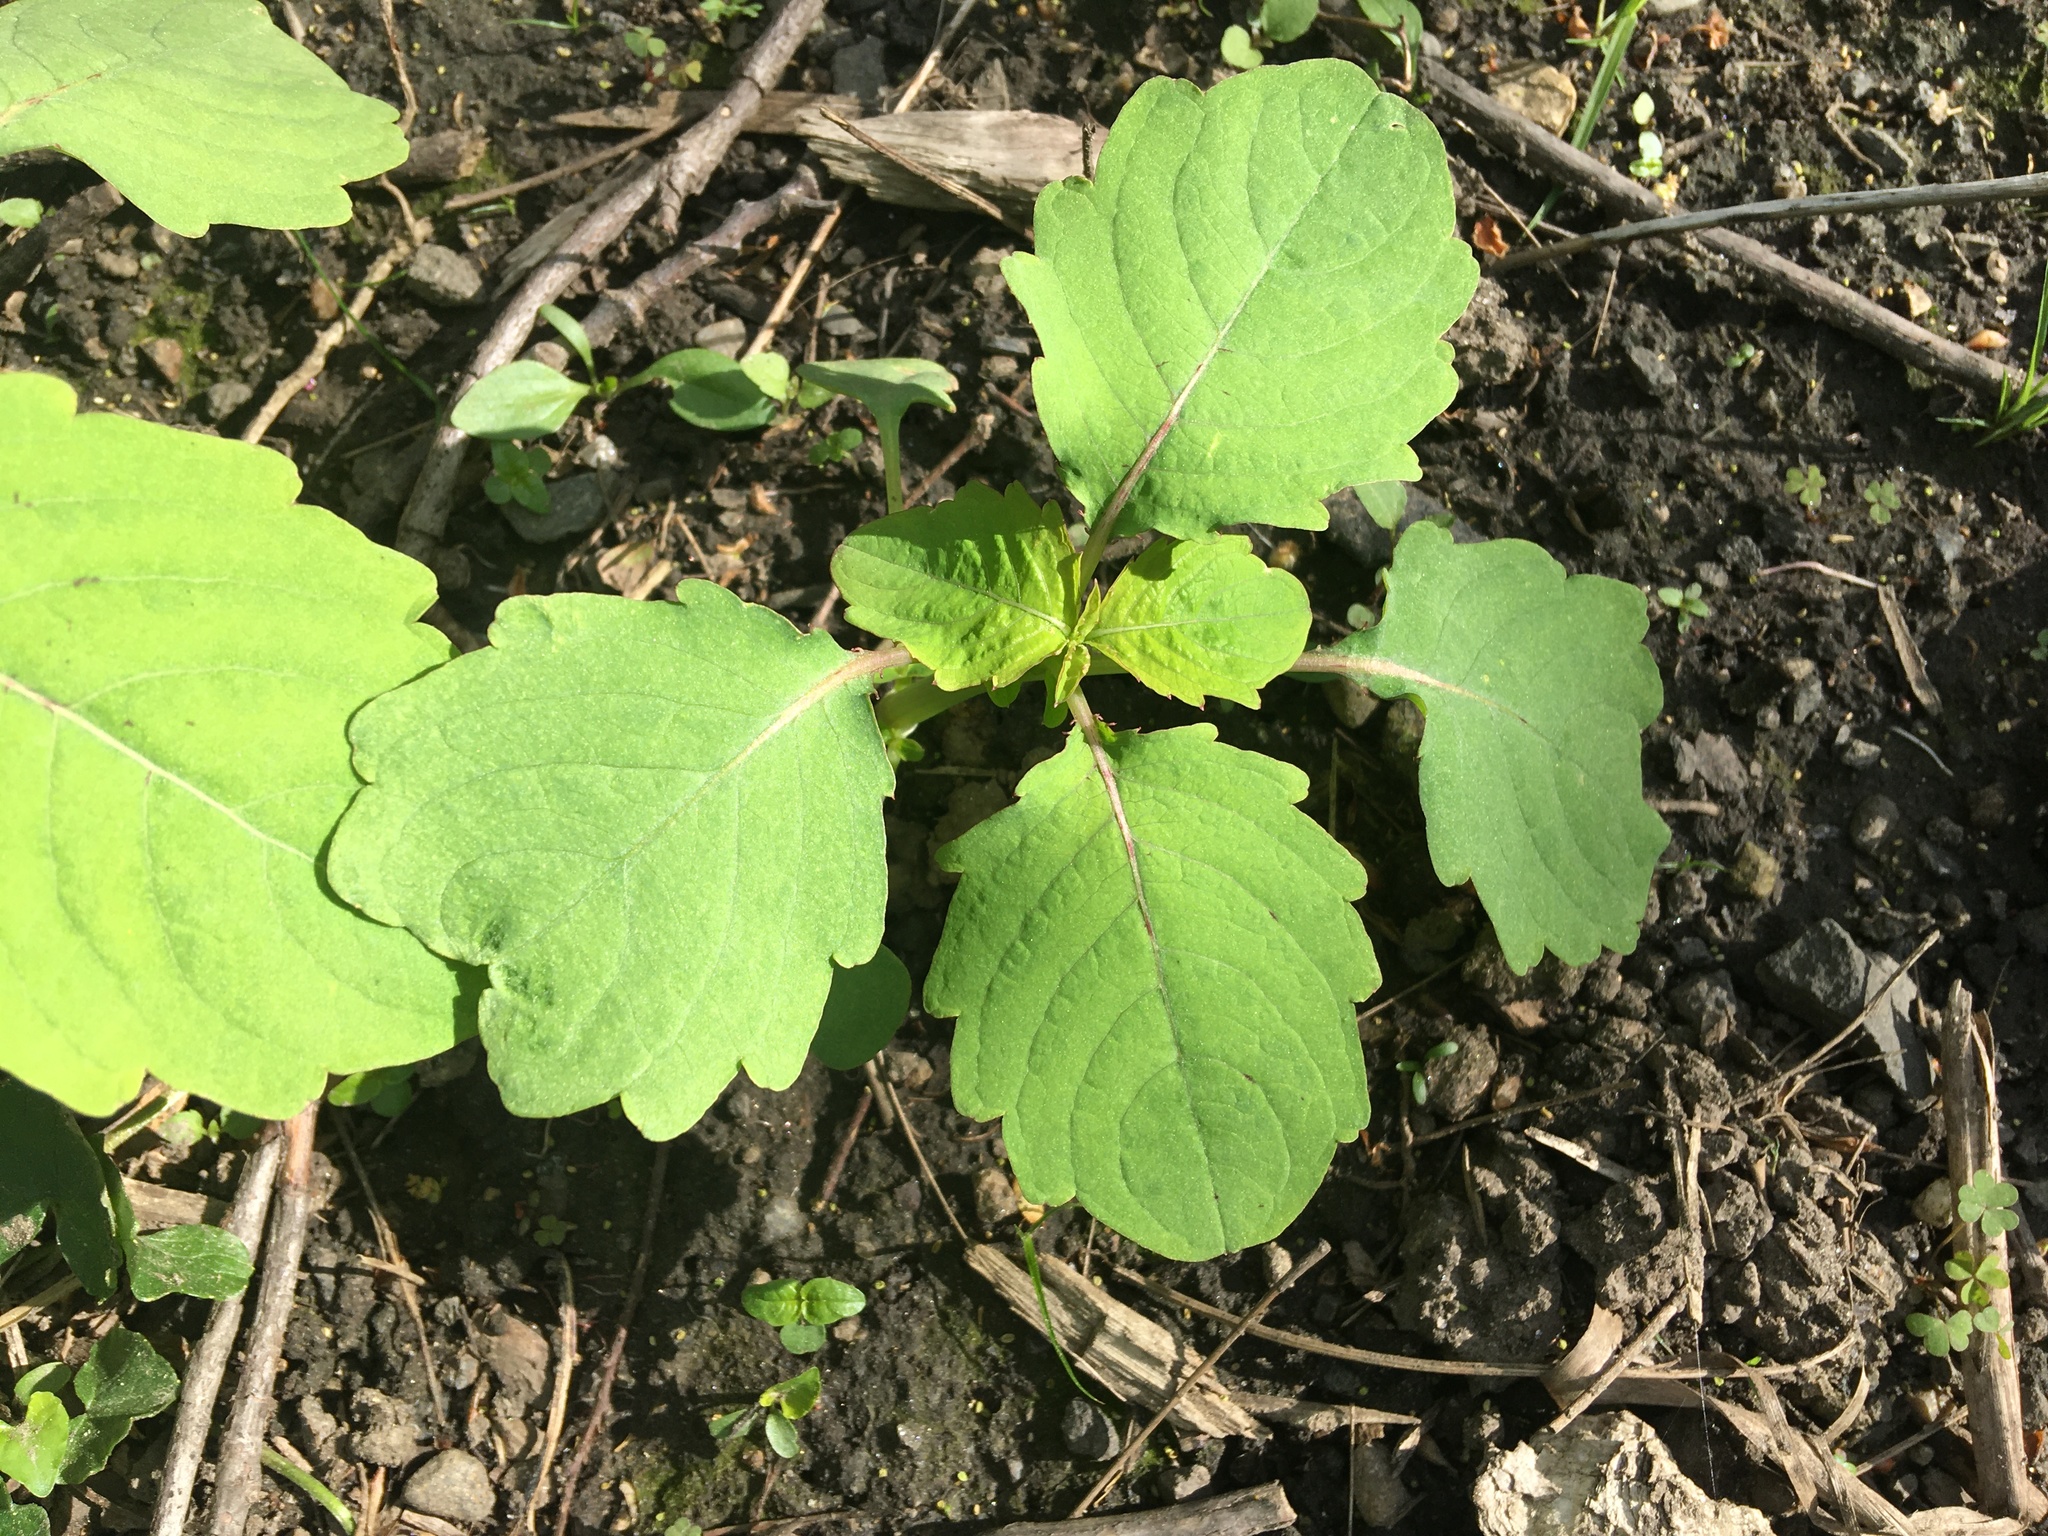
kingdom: Plantae
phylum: Tracheophyta
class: Magnoliopsida
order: Ericales
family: Balsaminaceae
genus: Impatiens
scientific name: Impatiens capensis
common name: Orange balsam
